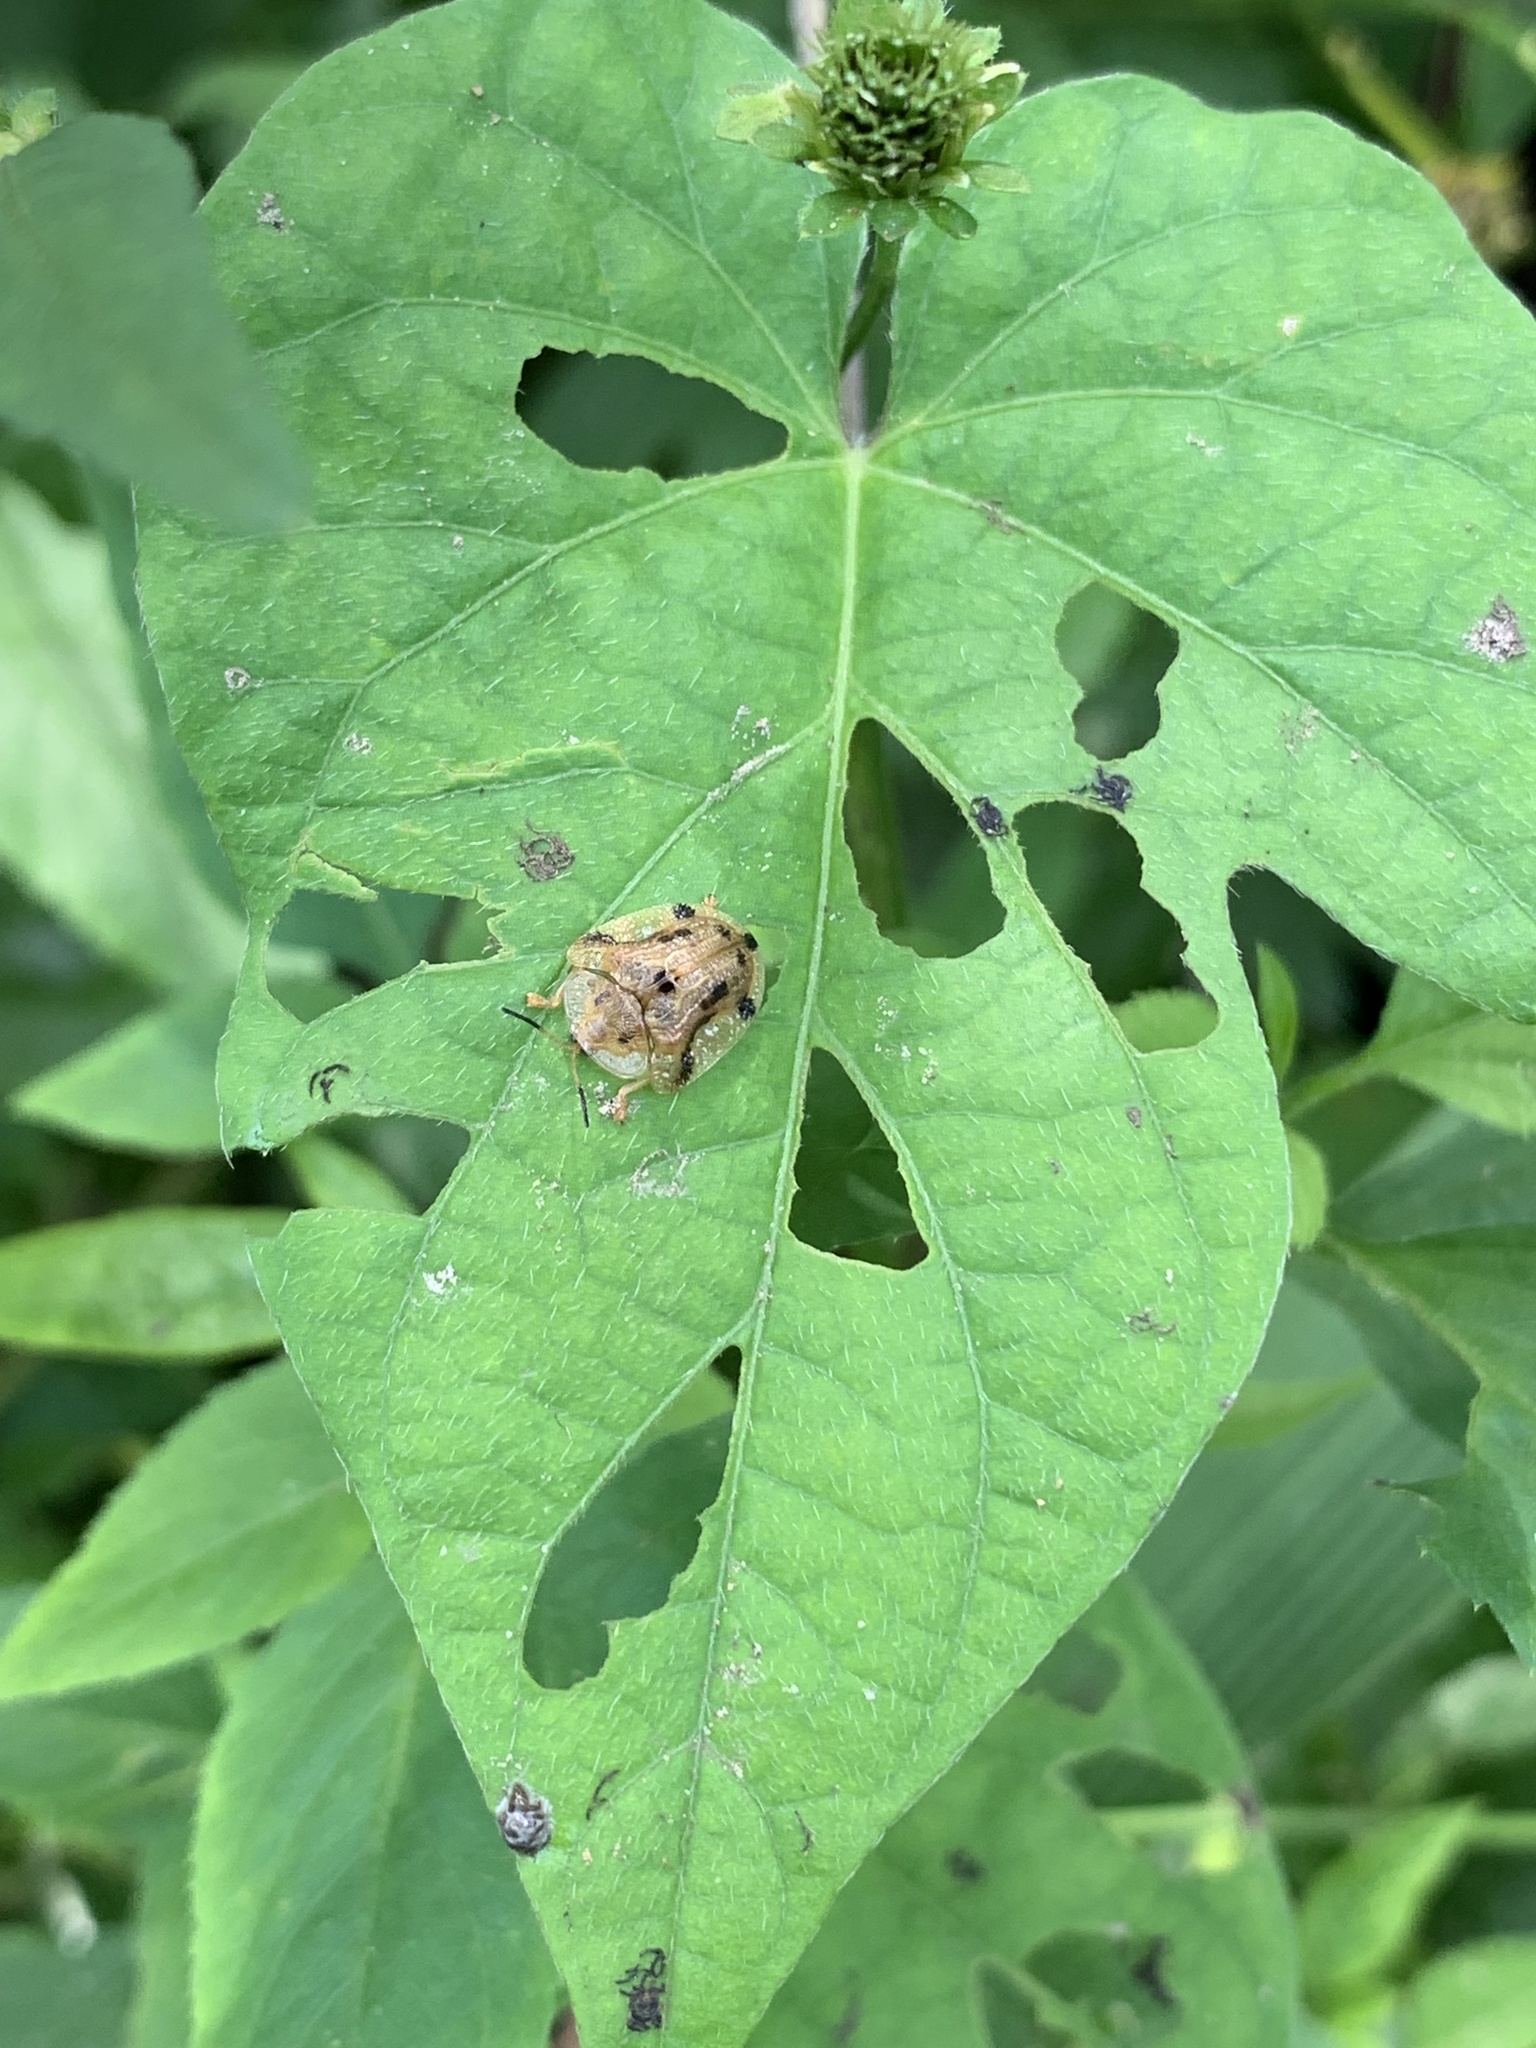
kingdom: Animalia
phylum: Arthropoda
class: Insecta
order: Coleoptera
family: Chrysomelidae
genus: Laccoptera
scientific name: Laccoptera nepalensis
